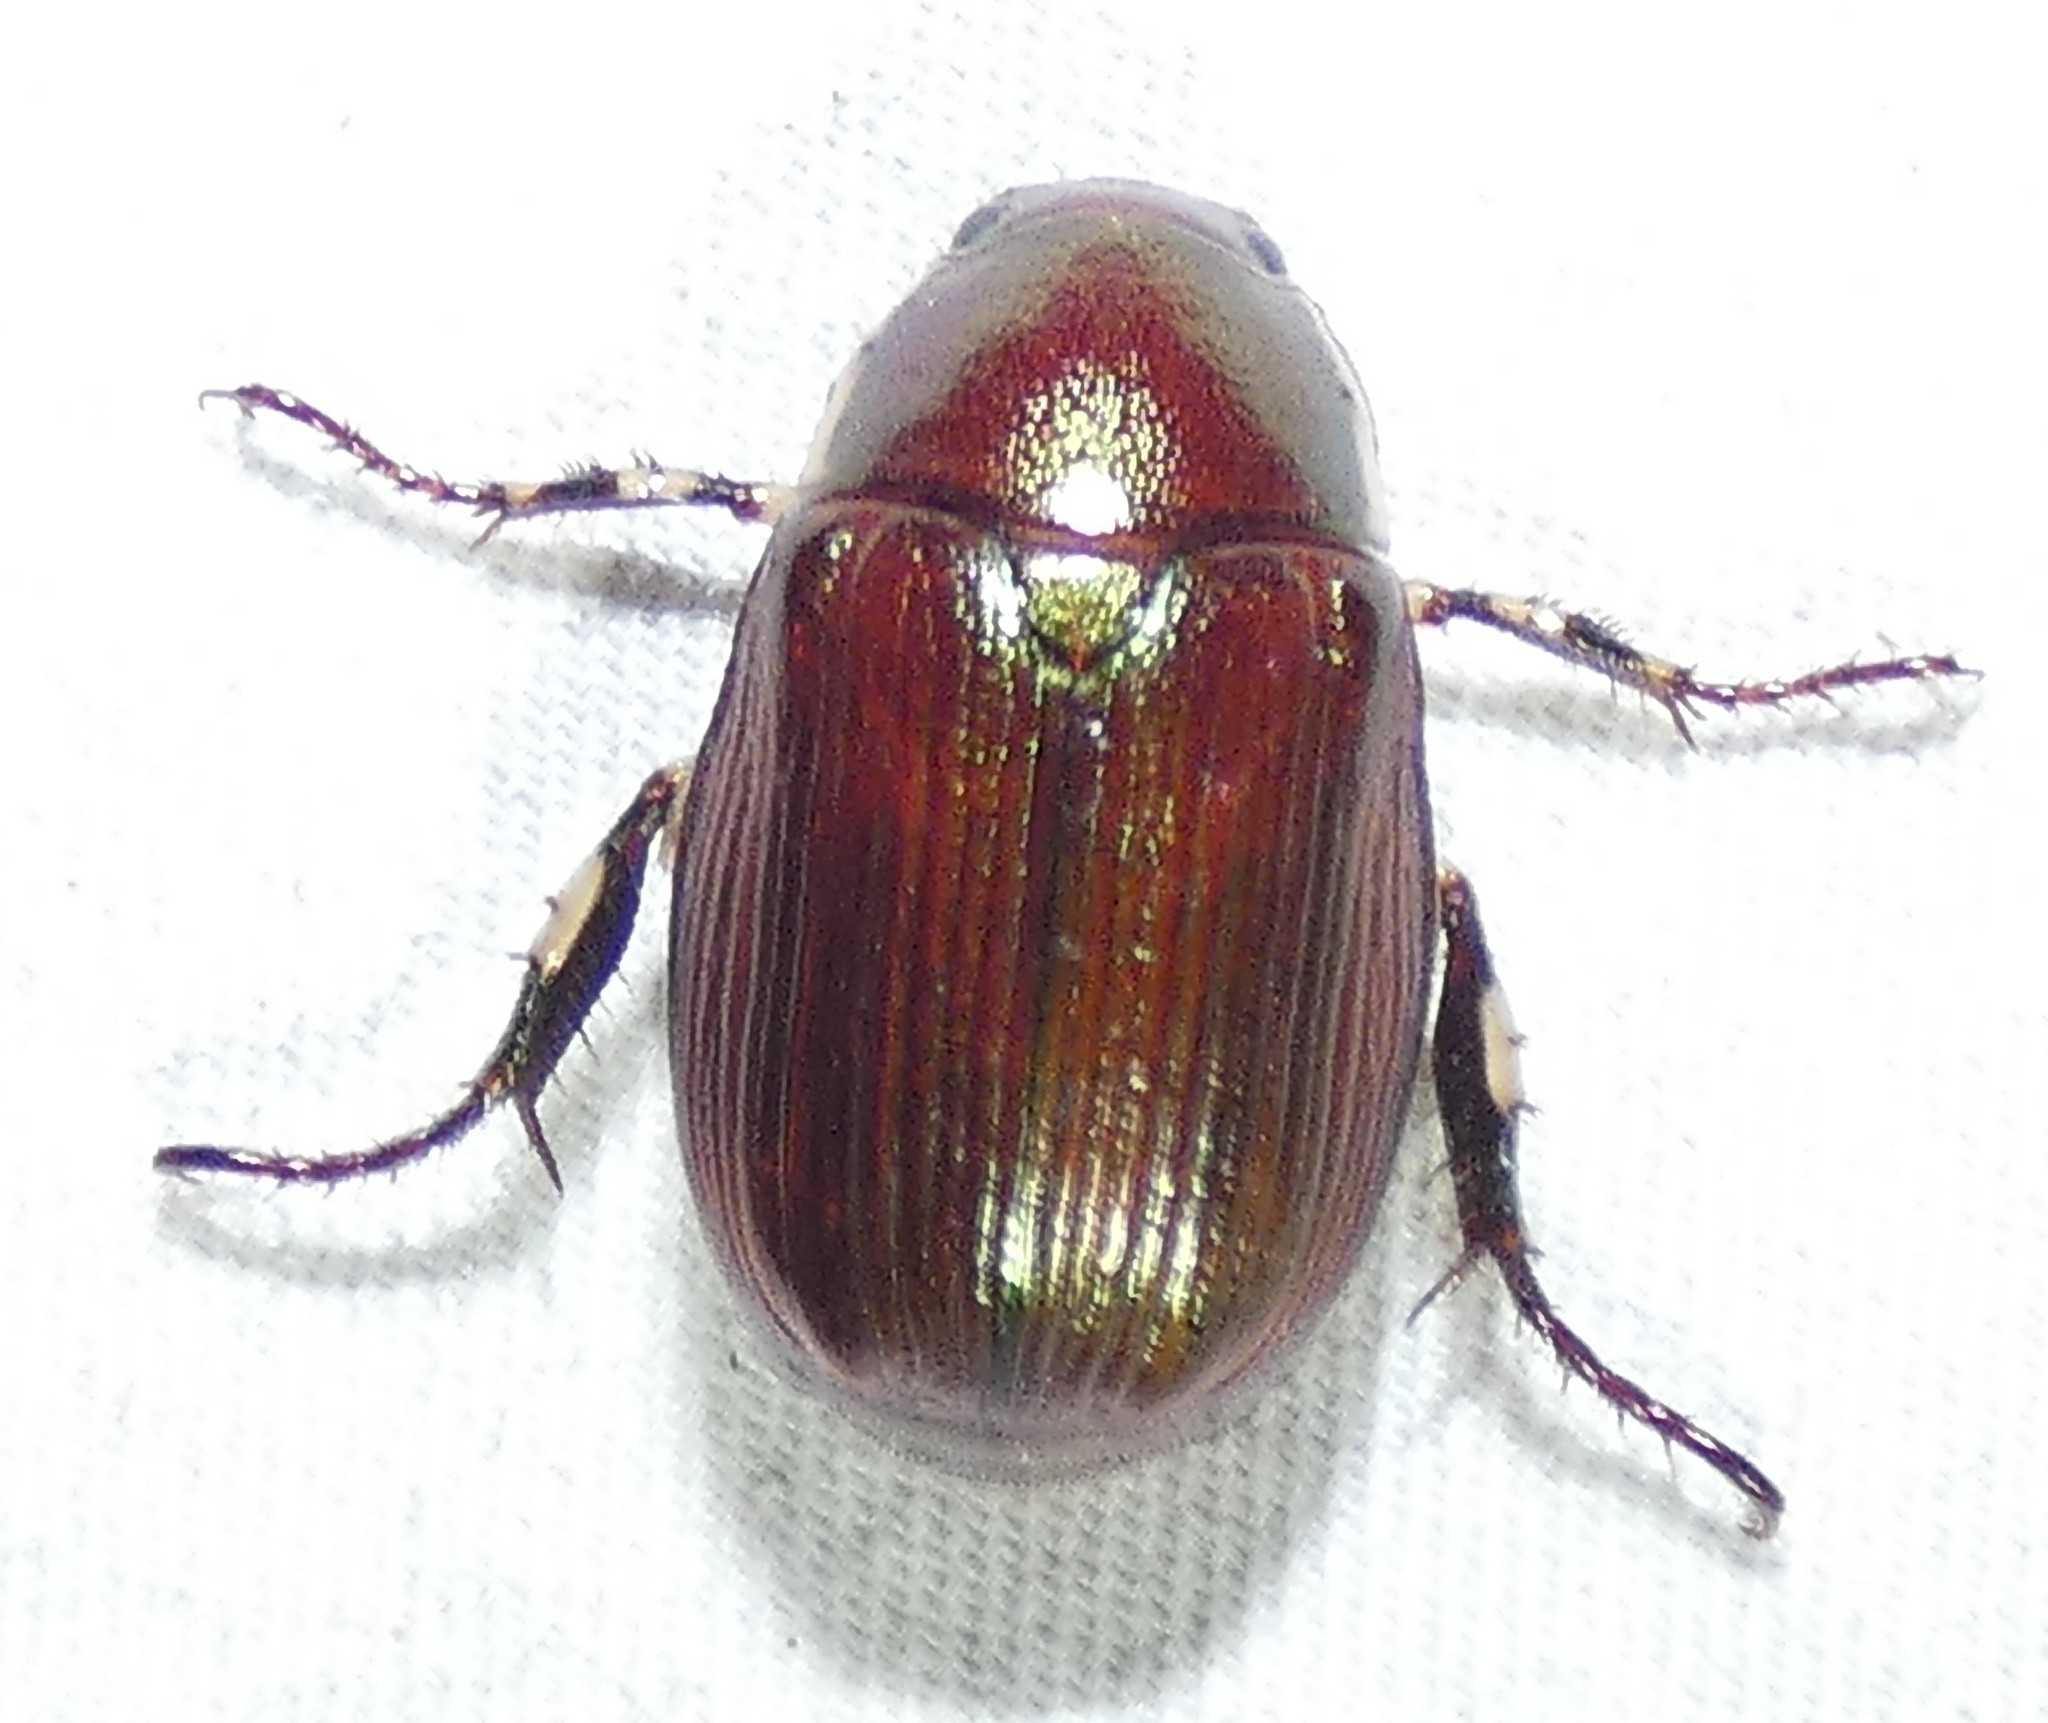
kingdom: Animalia
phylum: Arthropoda
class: Insecta
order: Coleoptera
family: Scarabaeidae
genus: Callistethus
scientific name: Callistethus marginatus
